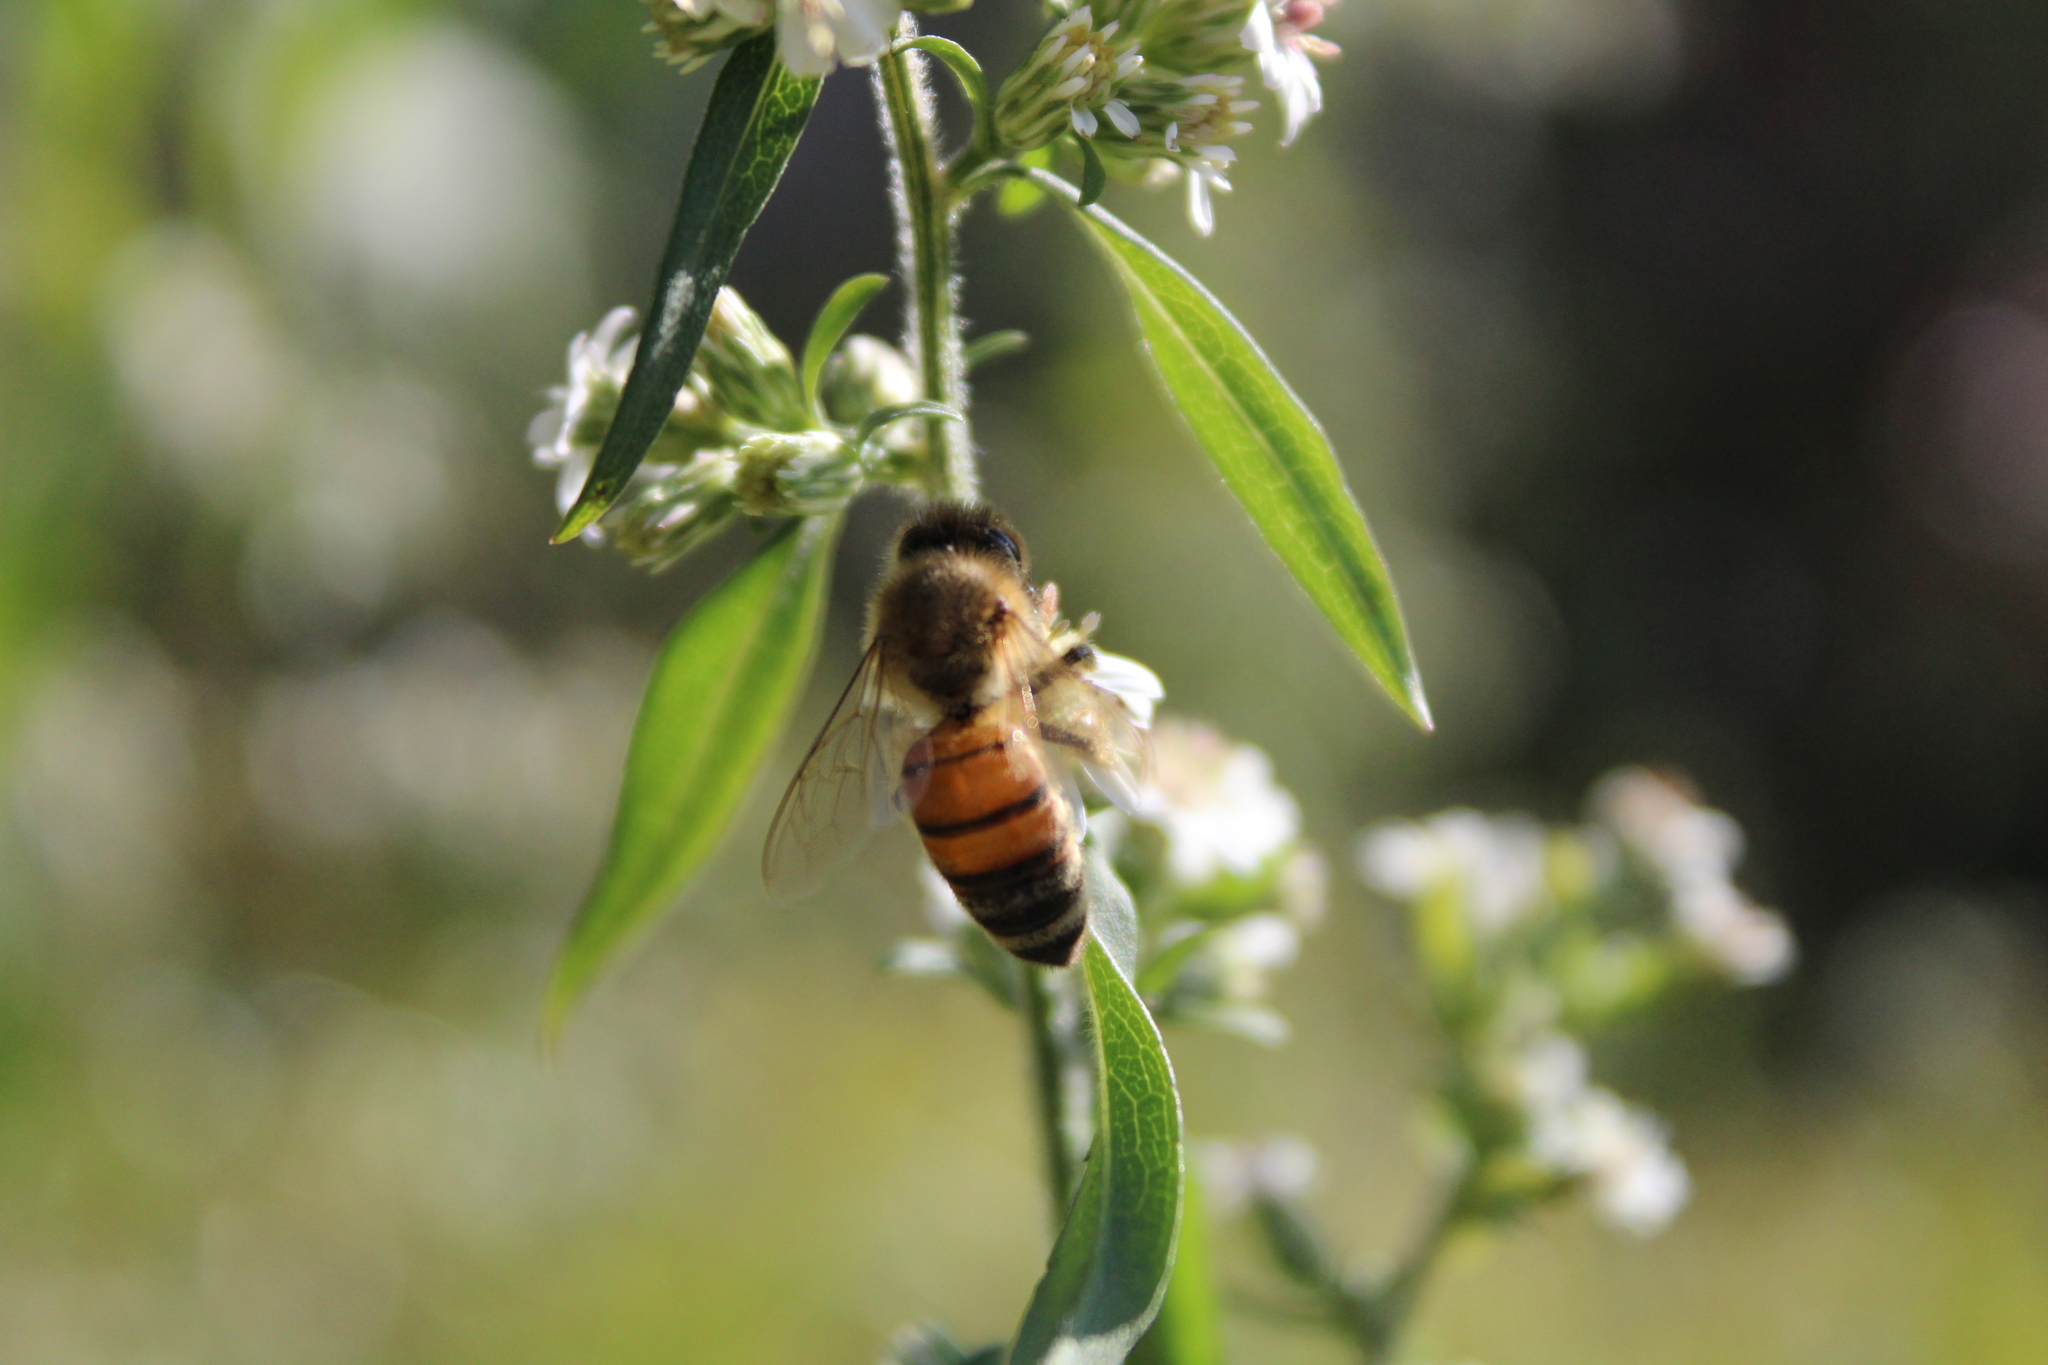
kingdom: Animalia
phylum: Arthropoda
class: Insecta
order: Hymenoptera
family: Apidae
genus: Apis
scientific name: Apis mellifera
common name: Honey bee
